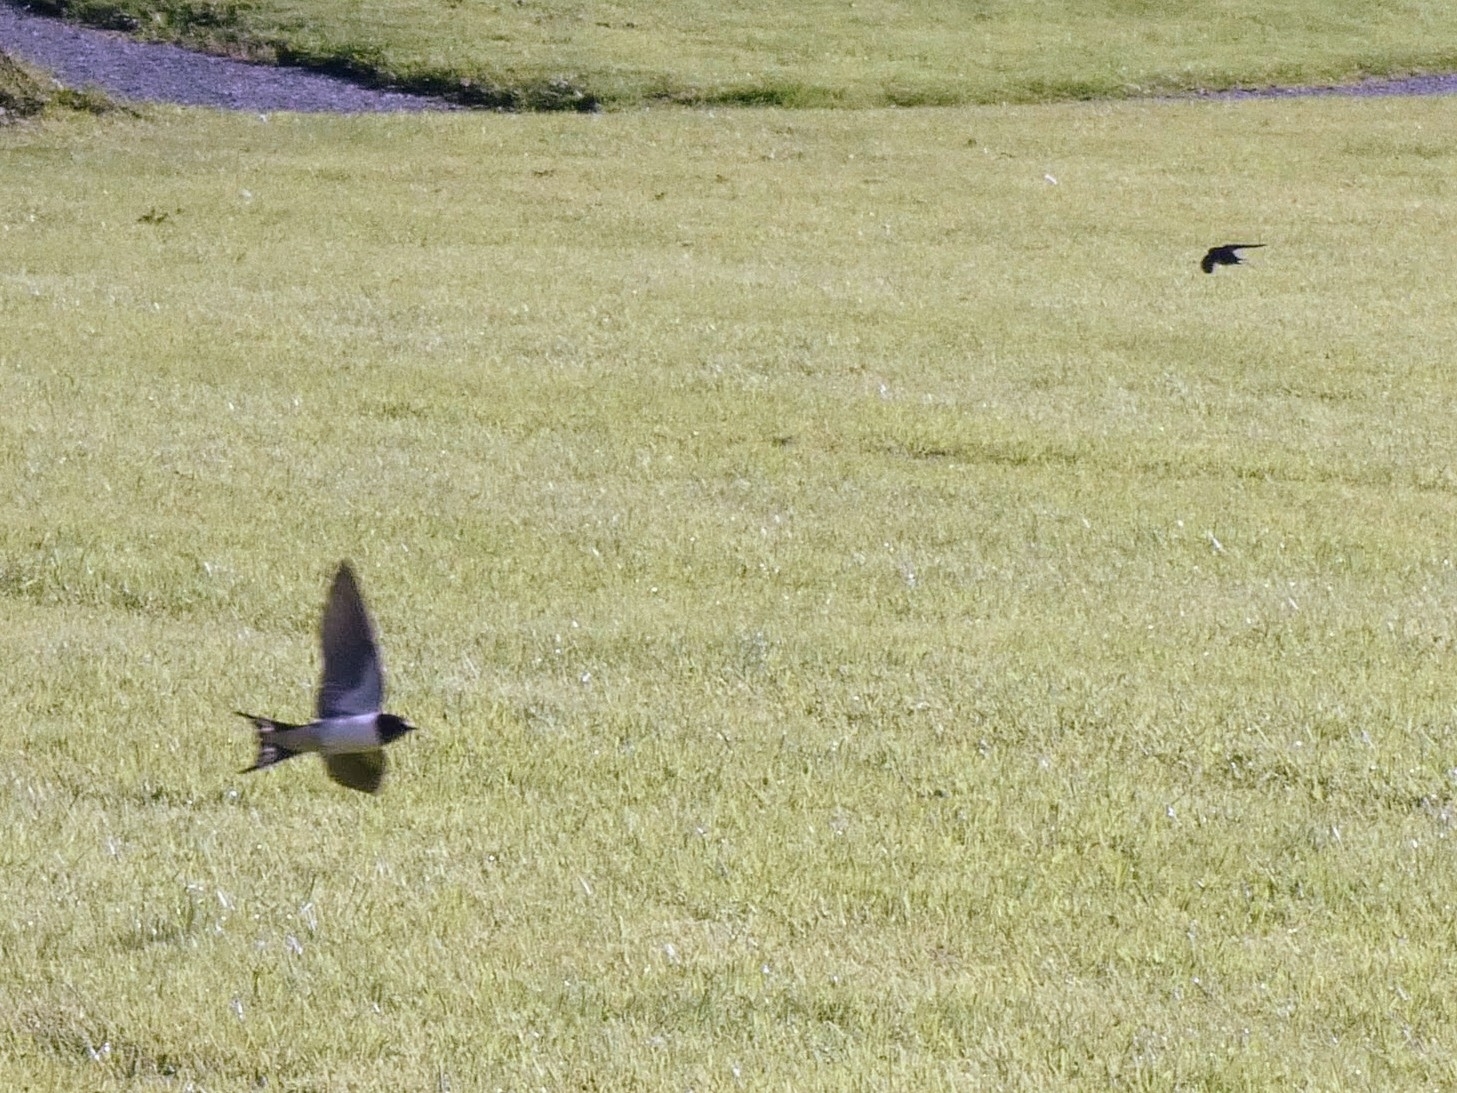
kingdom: Animalia
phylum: Chordata
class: Aves
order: Passeriformes
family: Hirundinidae
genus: Hirundo
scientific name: Hirundo rustica
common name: Barn swallow
